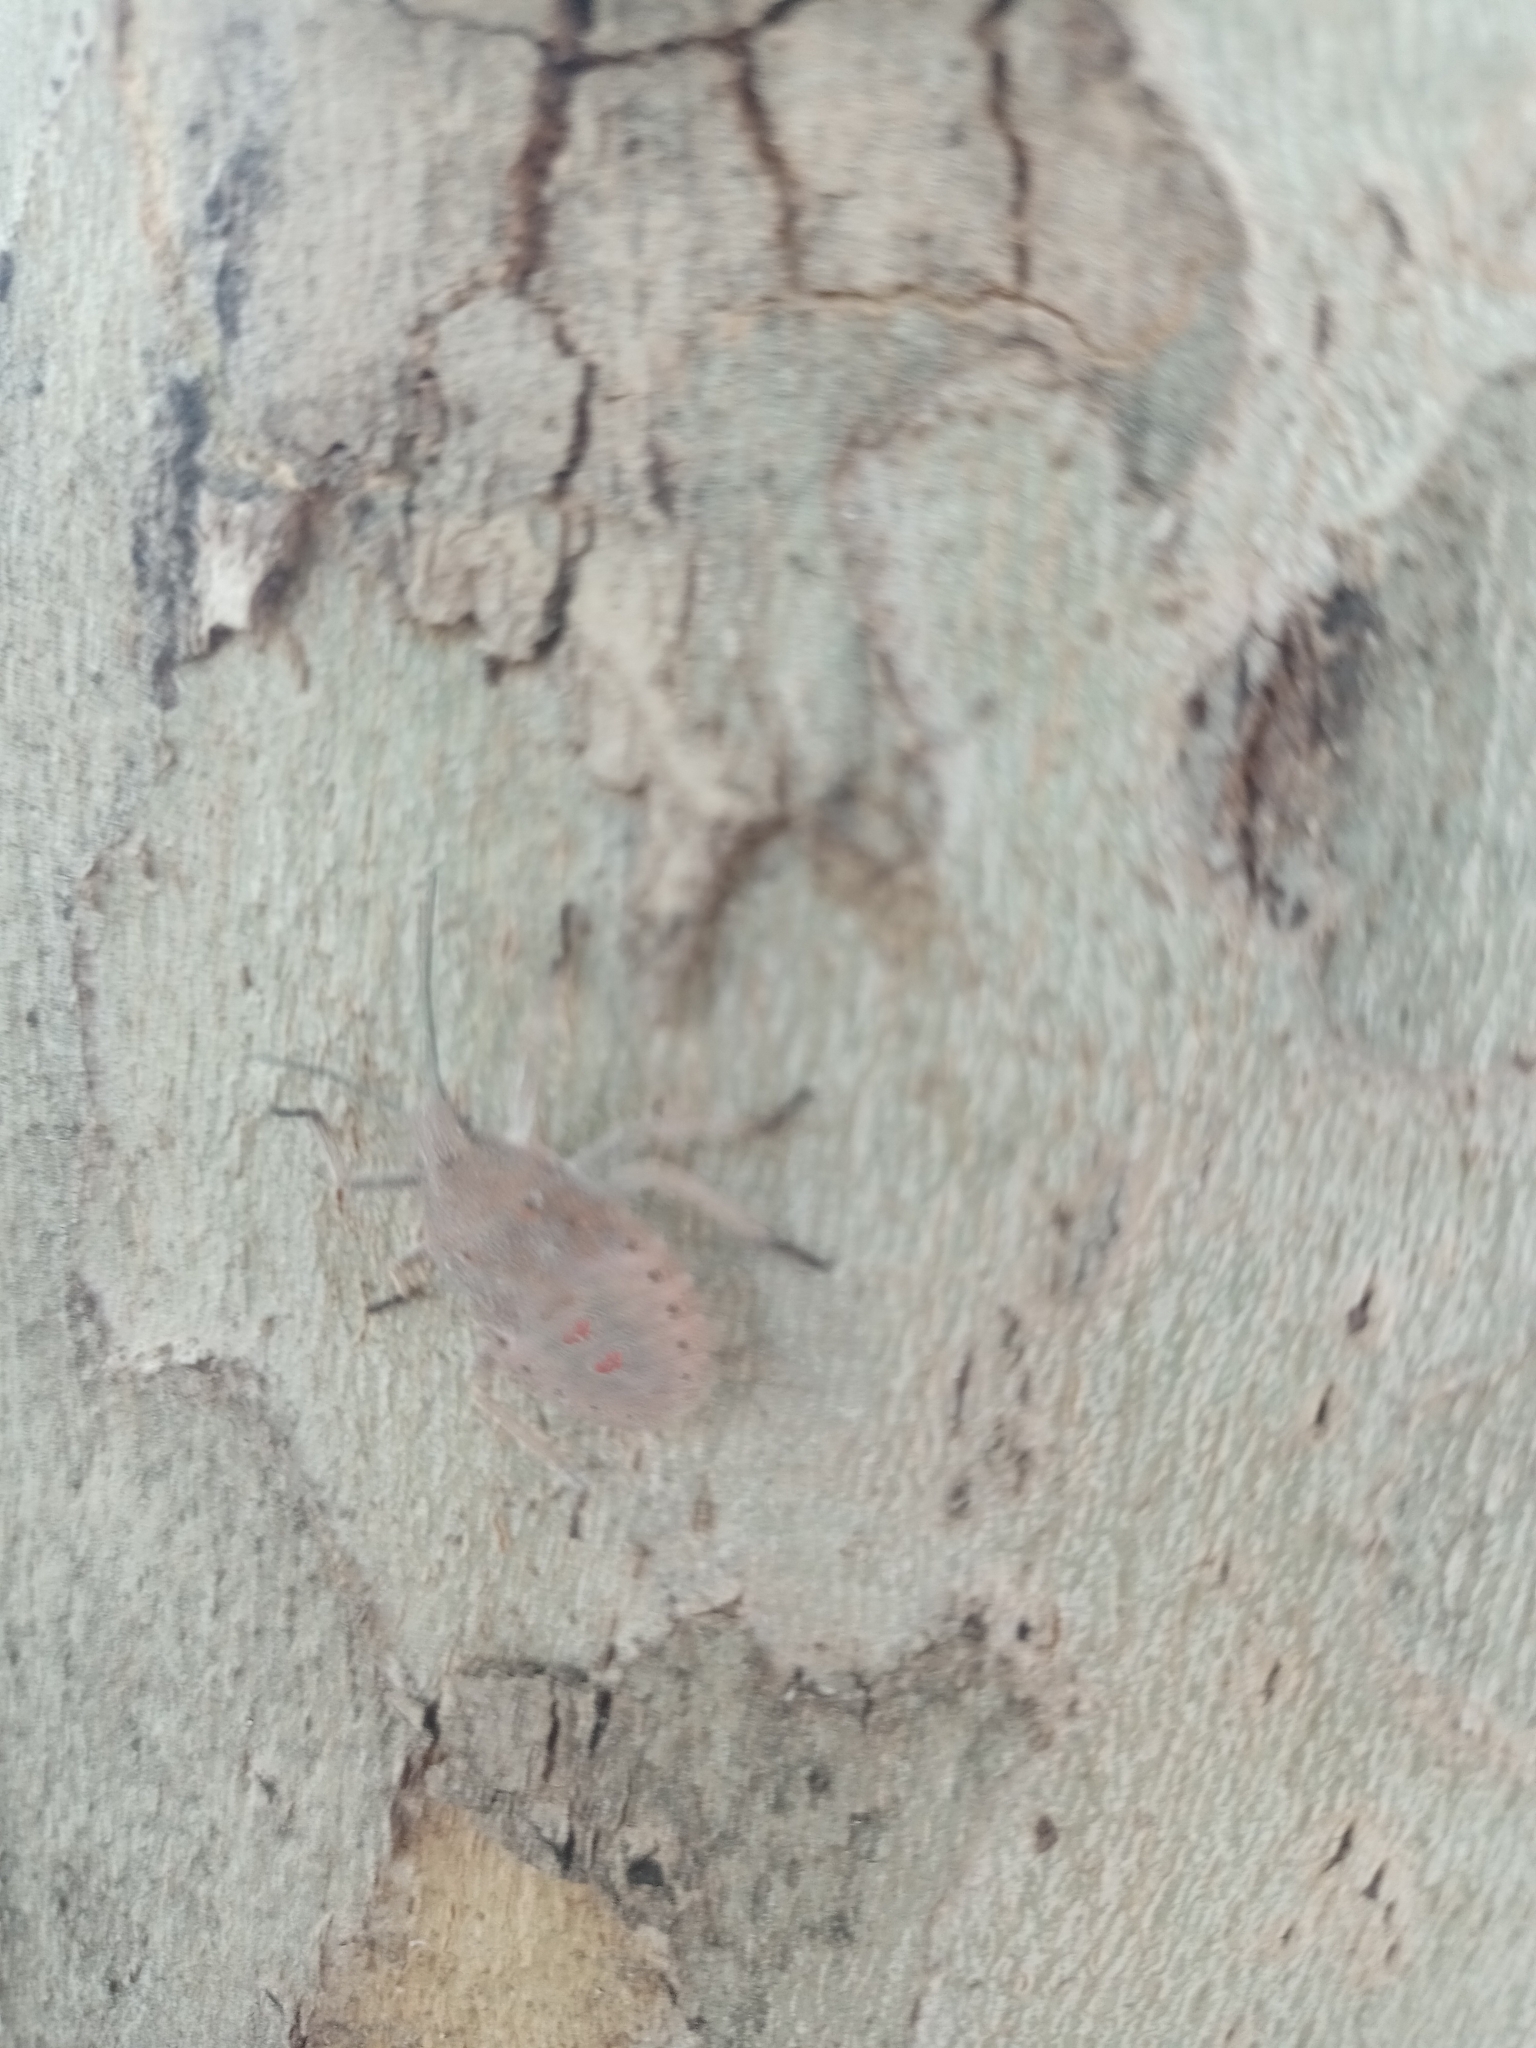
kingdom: Animalia
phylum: Arthropoda
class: Insecta
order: Hemiptera
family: Pentatomidae
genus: Apodiphus
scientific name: Apodiphus
